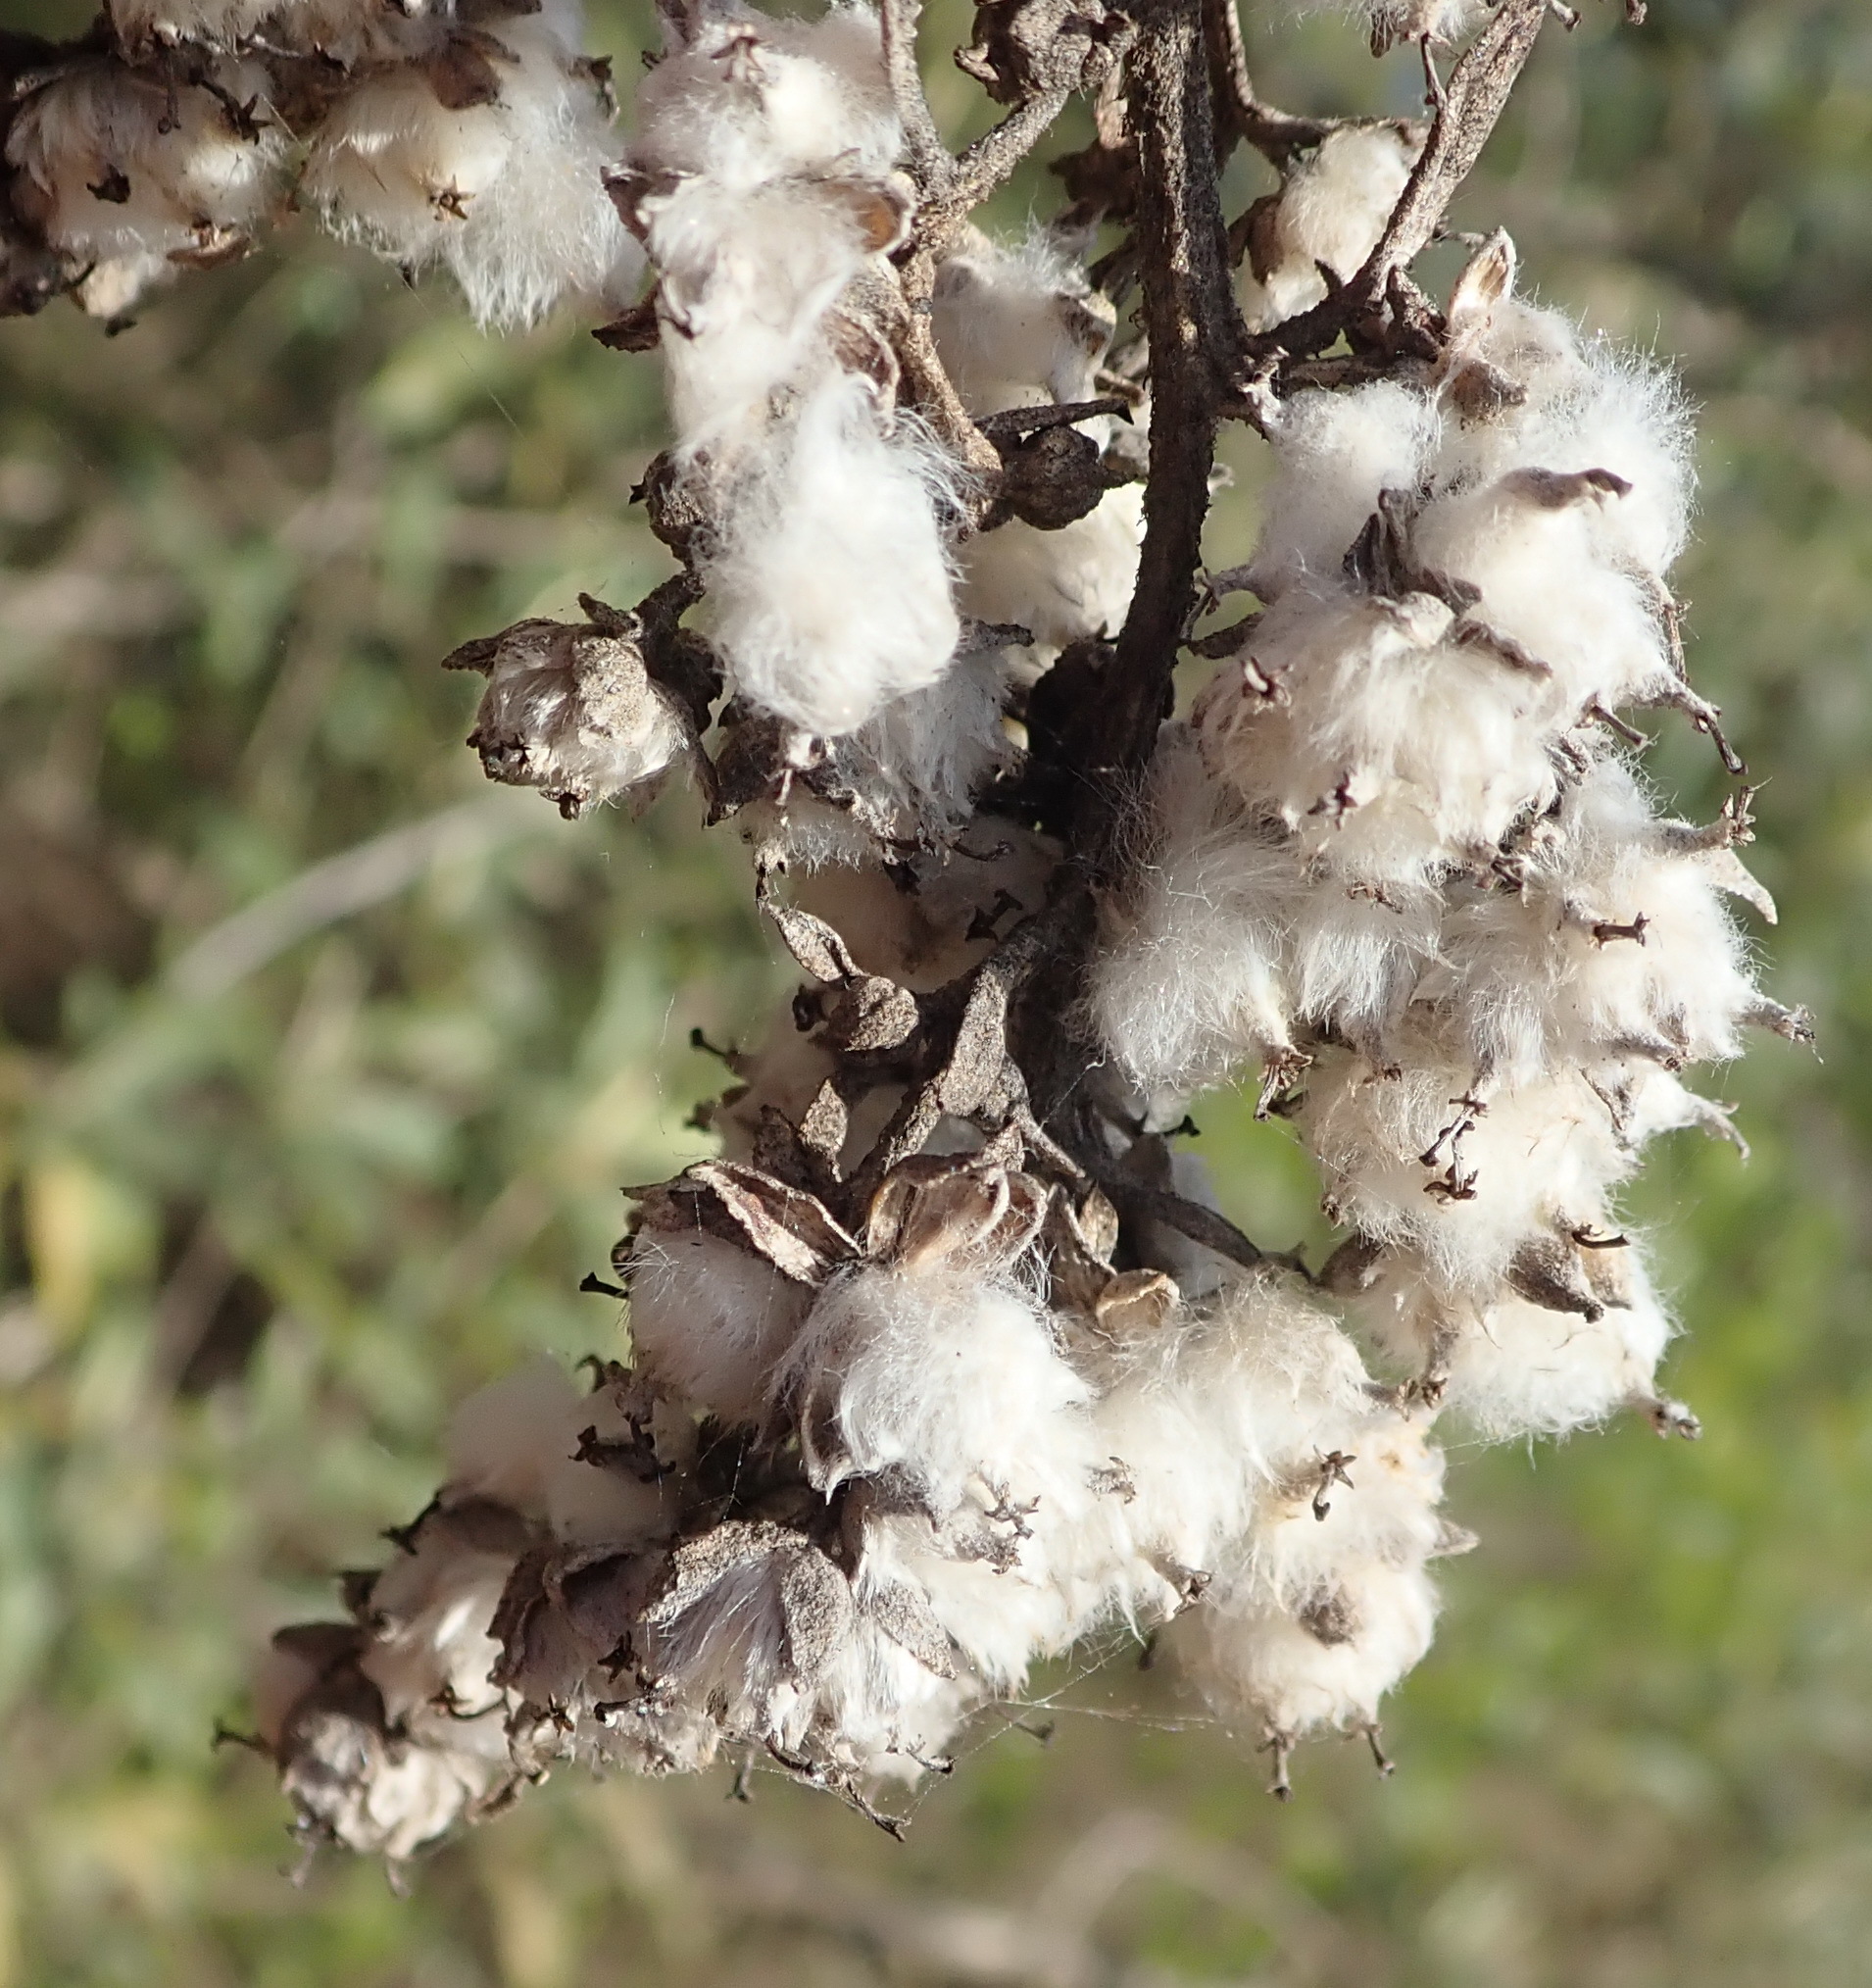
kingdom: Plantae
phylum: Tracheophyta
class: Magnoliopsida
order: Asterales
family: Asteraceae
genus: Tarchonanthus
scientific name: Tarchonanthus littoralis
